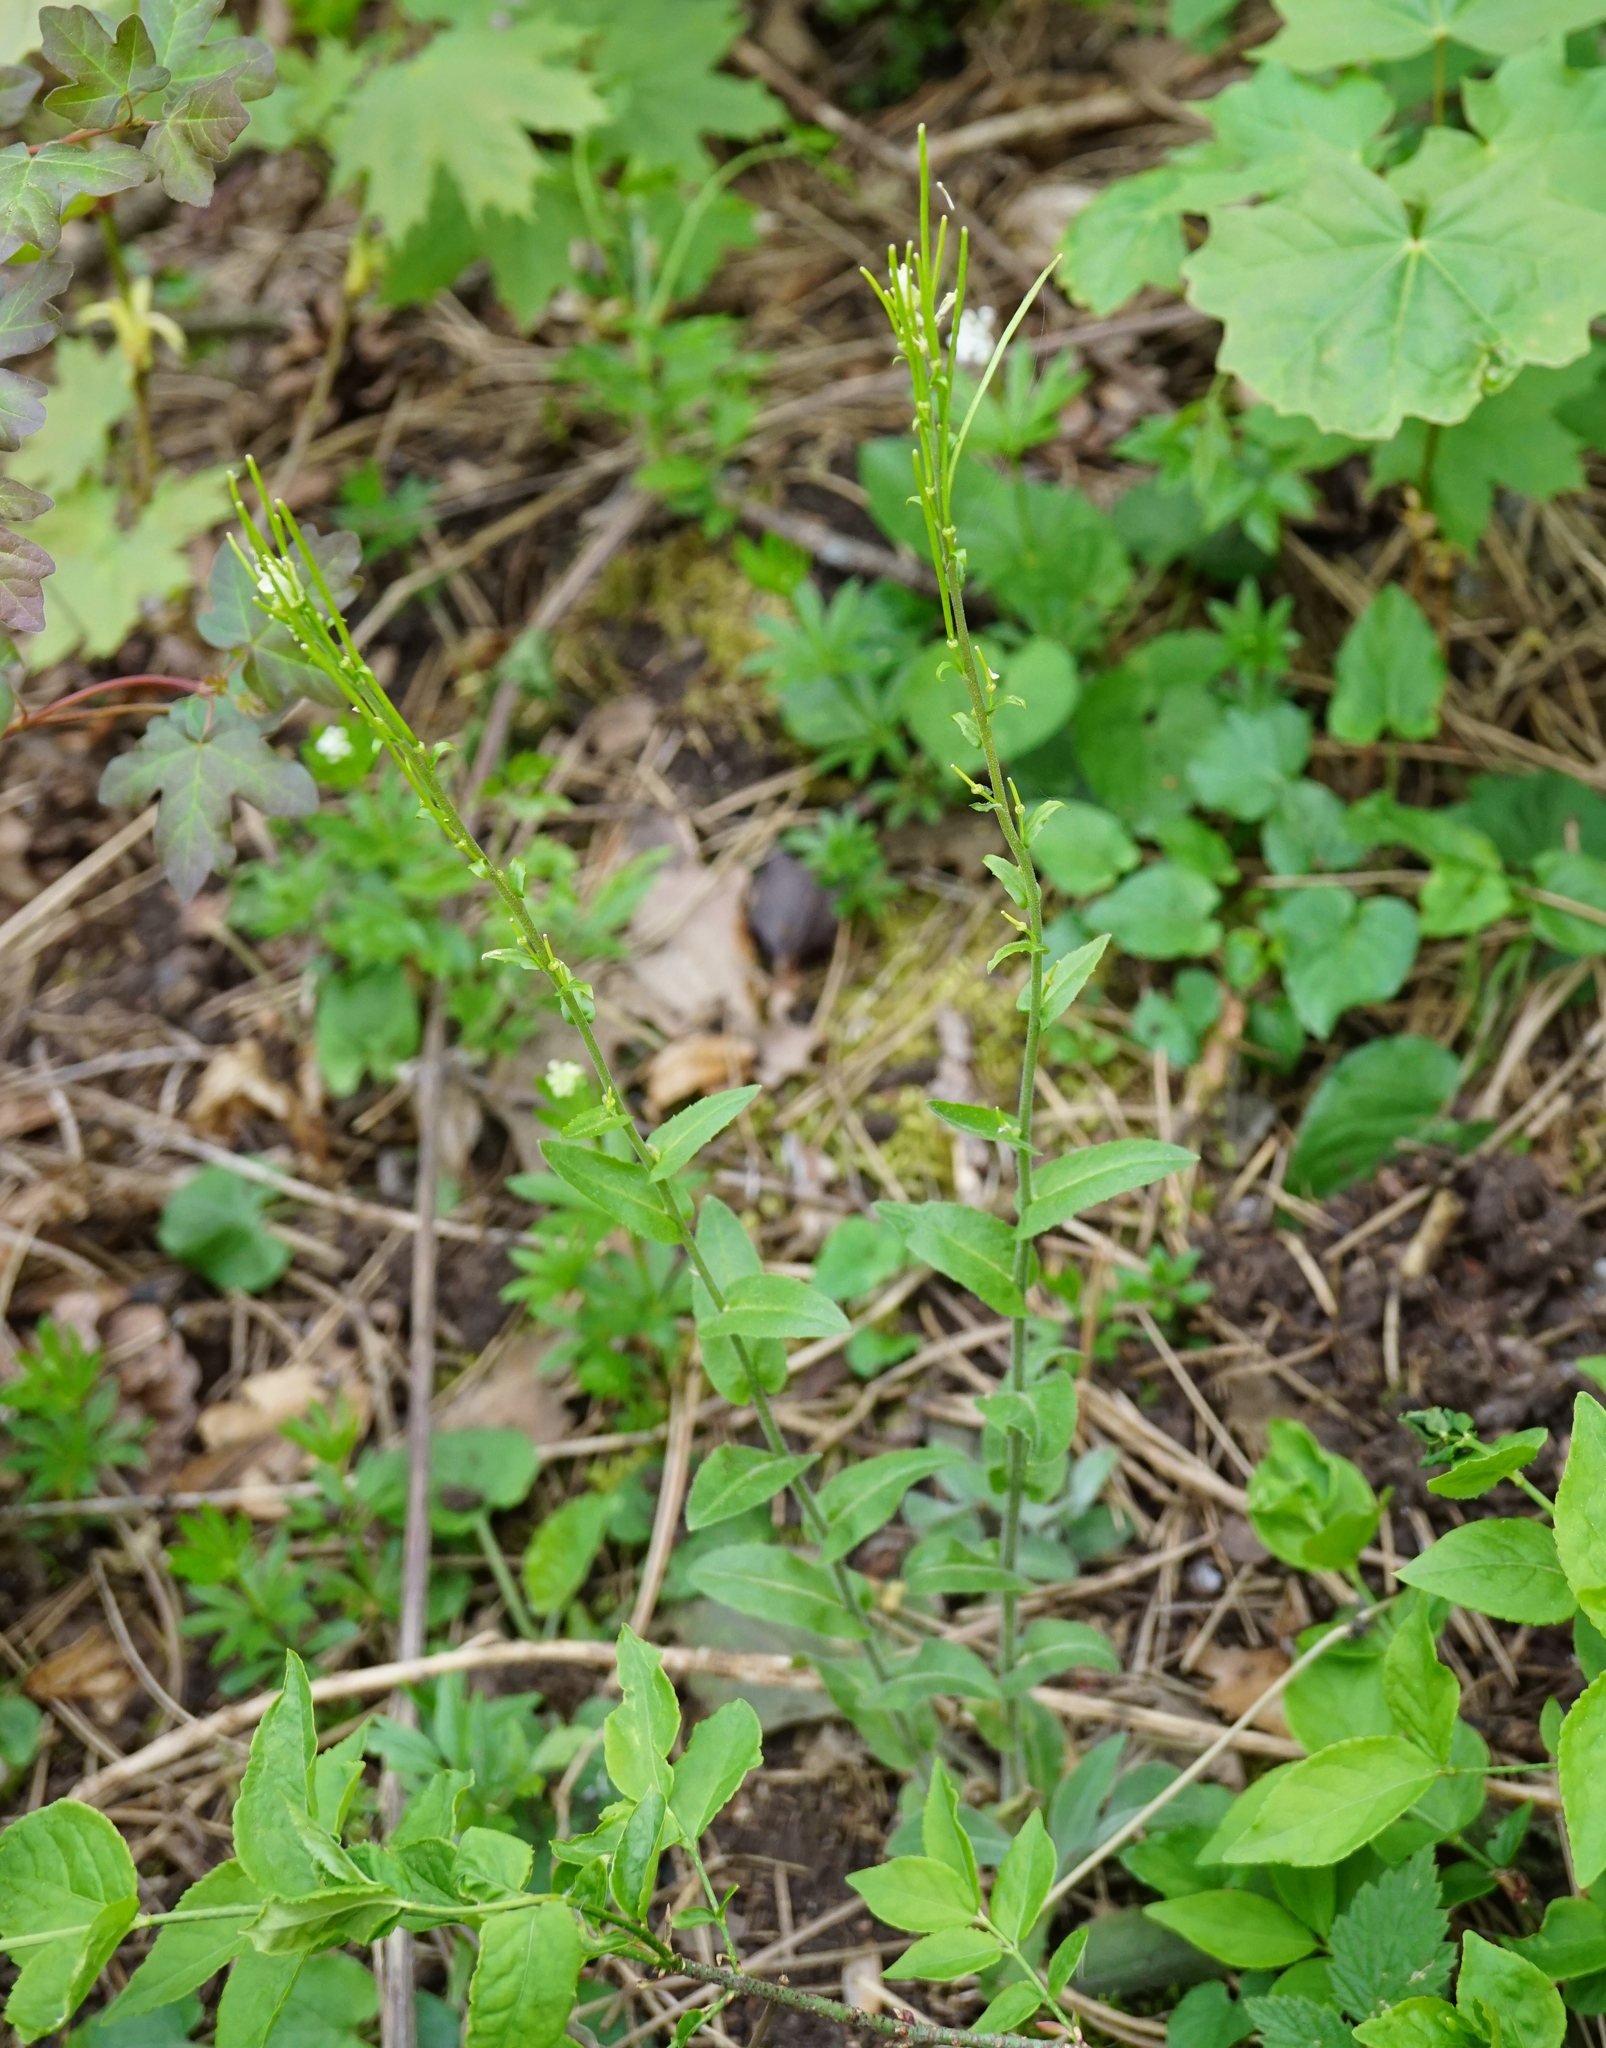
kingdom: Plantae
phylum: Tracheophyta
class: Magnoliopsida
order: Brassicales
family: Brassicaceae
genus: Pseudoturritis
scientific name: Pseudoturritis turrita
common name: Tower cress
